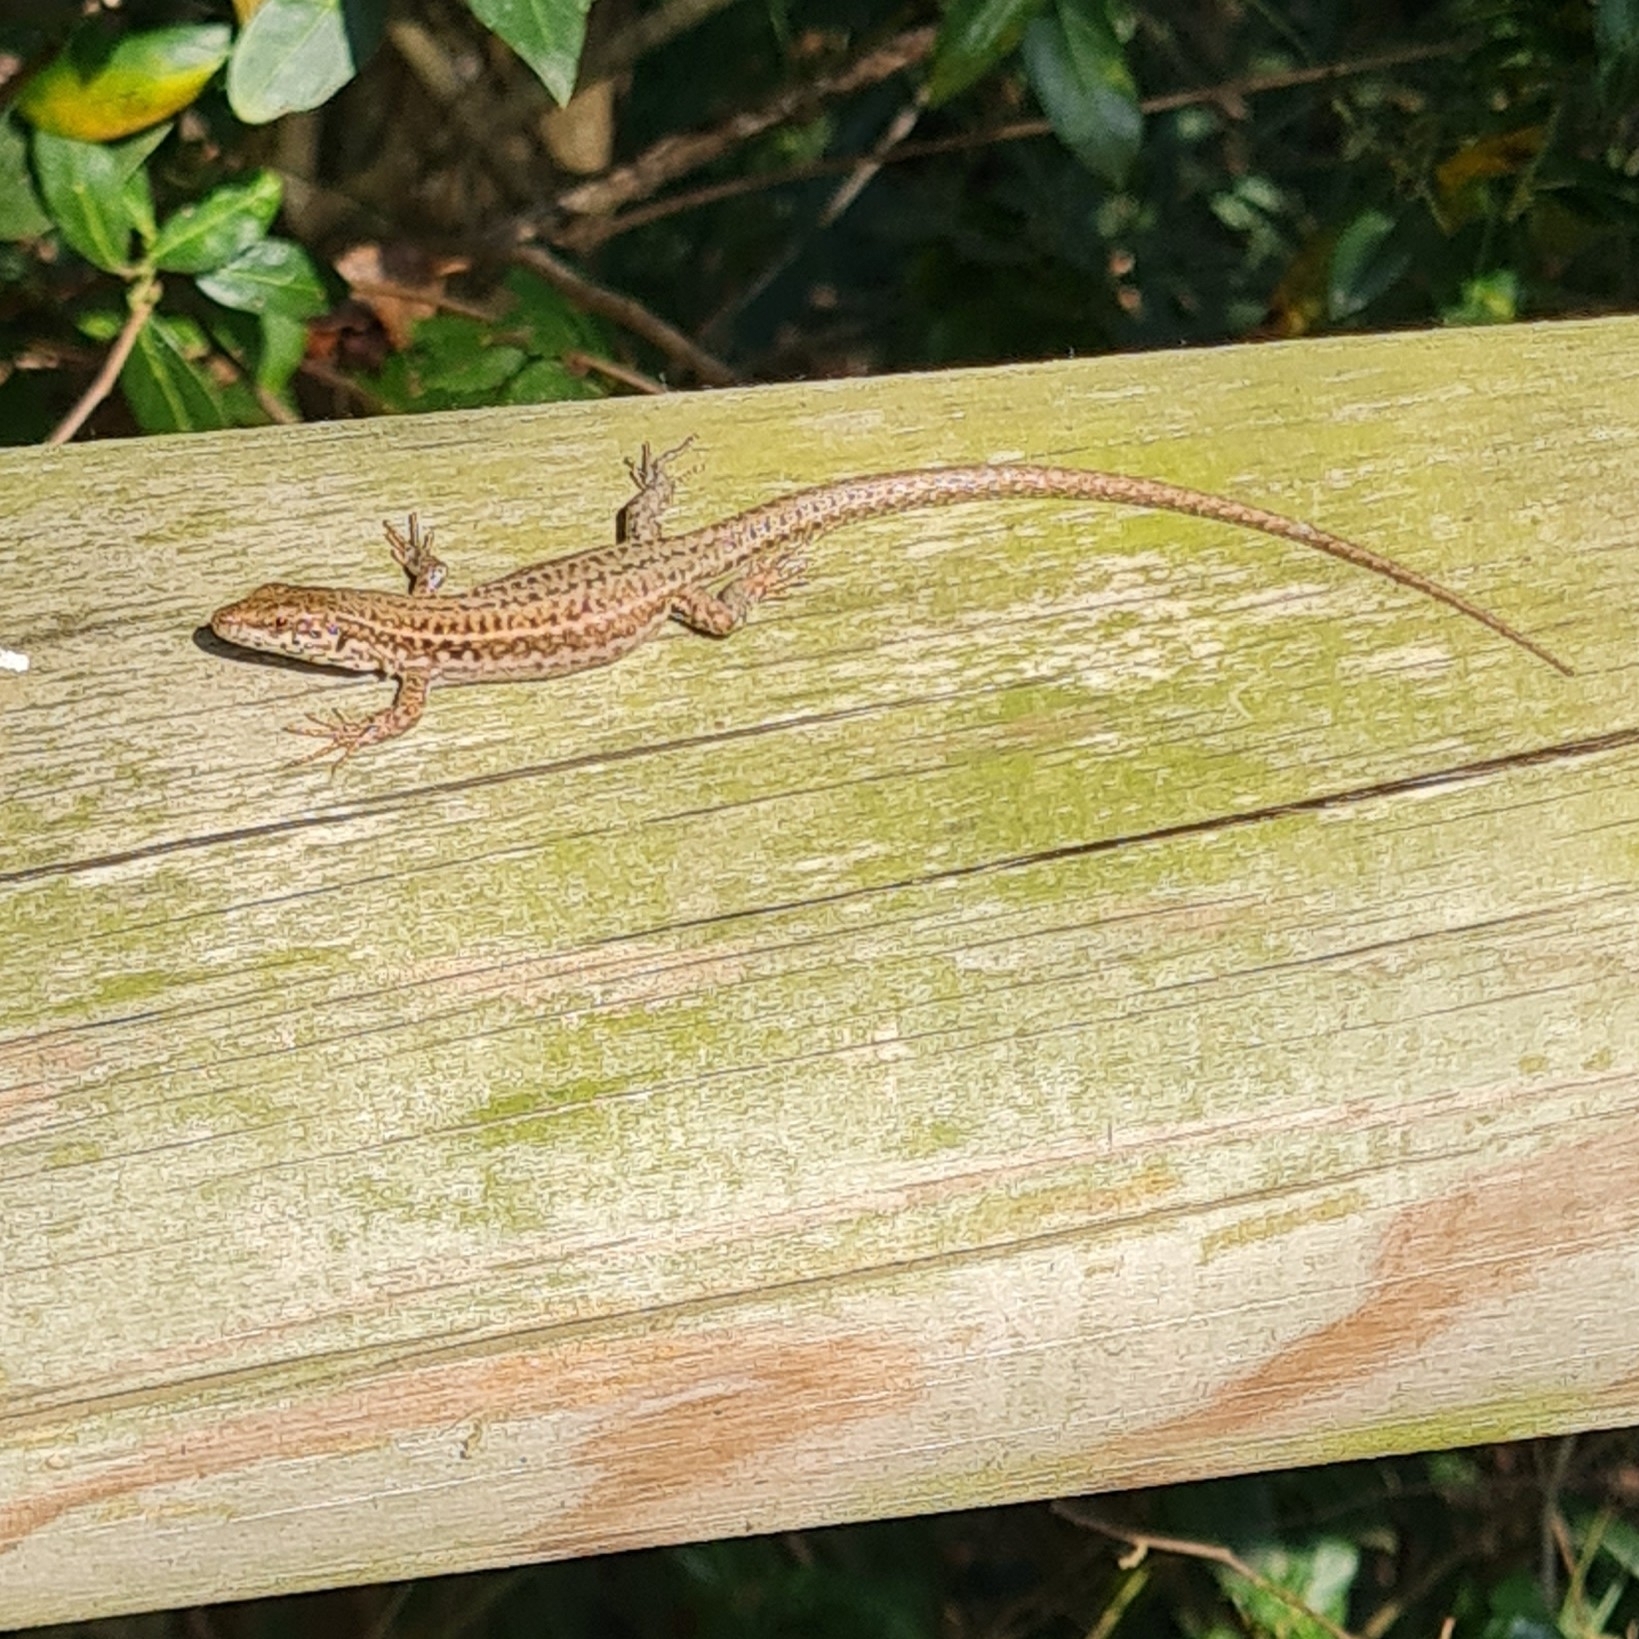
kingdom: Animalia
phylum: Chordata
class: Squamata
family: Lacertidae
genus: Podarcis
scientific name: Podarcis liolepis
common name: Catalonian wall lizard
